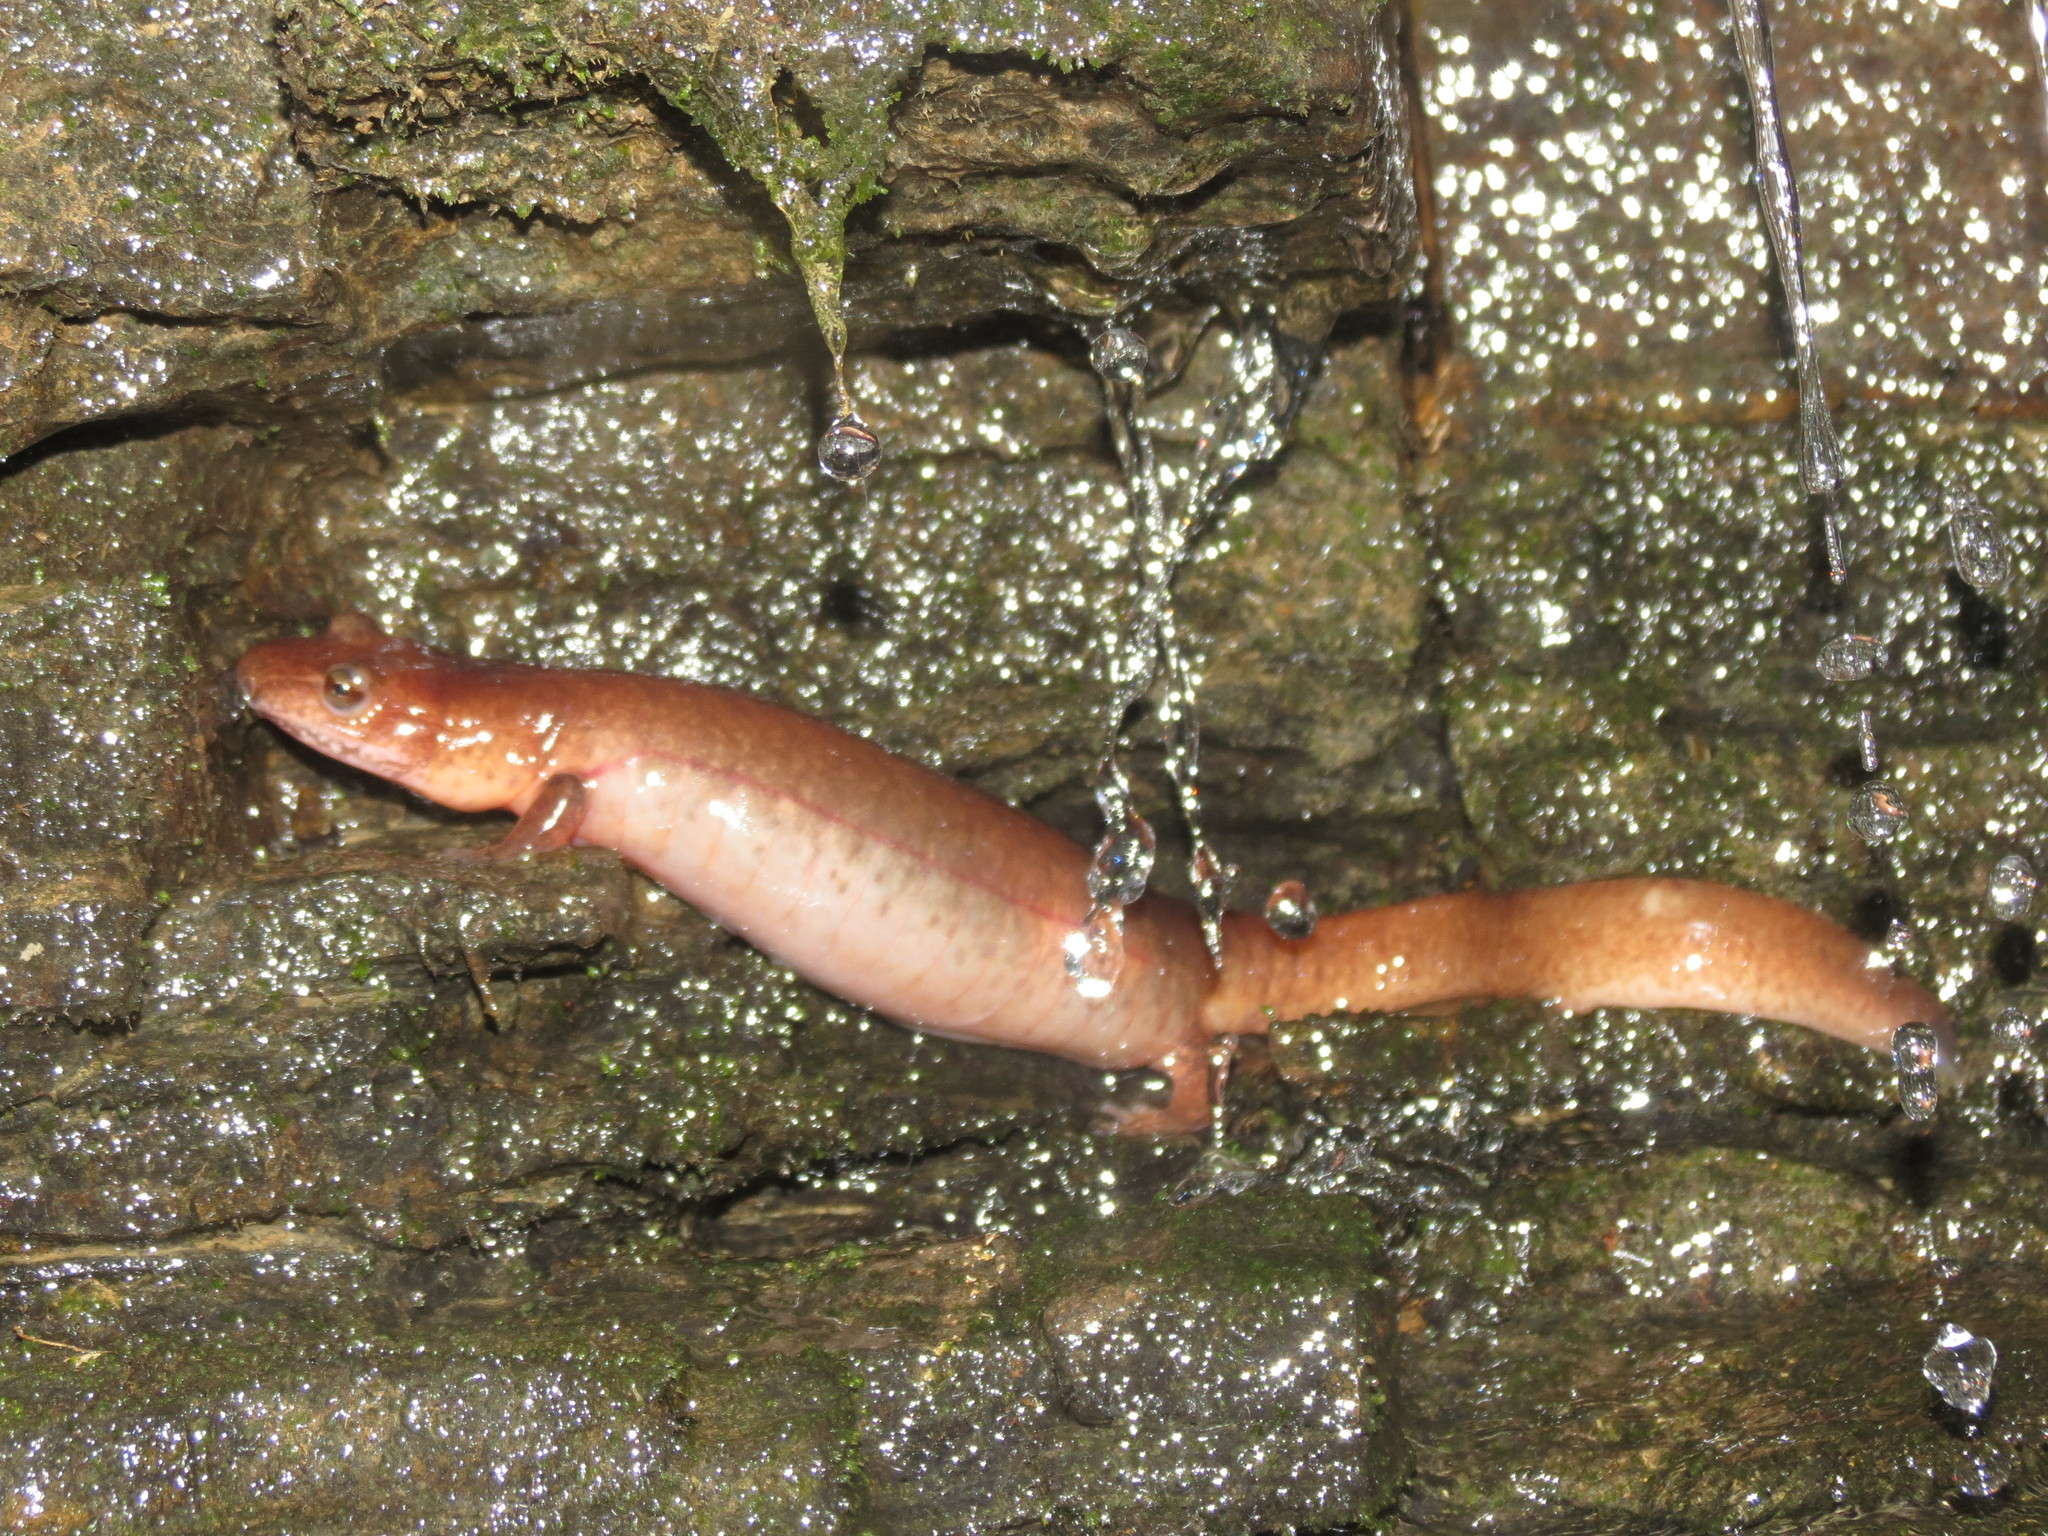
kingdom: Animalia
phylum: Chordata
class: Amphibia
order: Caudata
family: Plethodontidae
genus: Gyrinophilus
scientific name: Gyrinophilus porphyriticus
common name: Spring salamander
